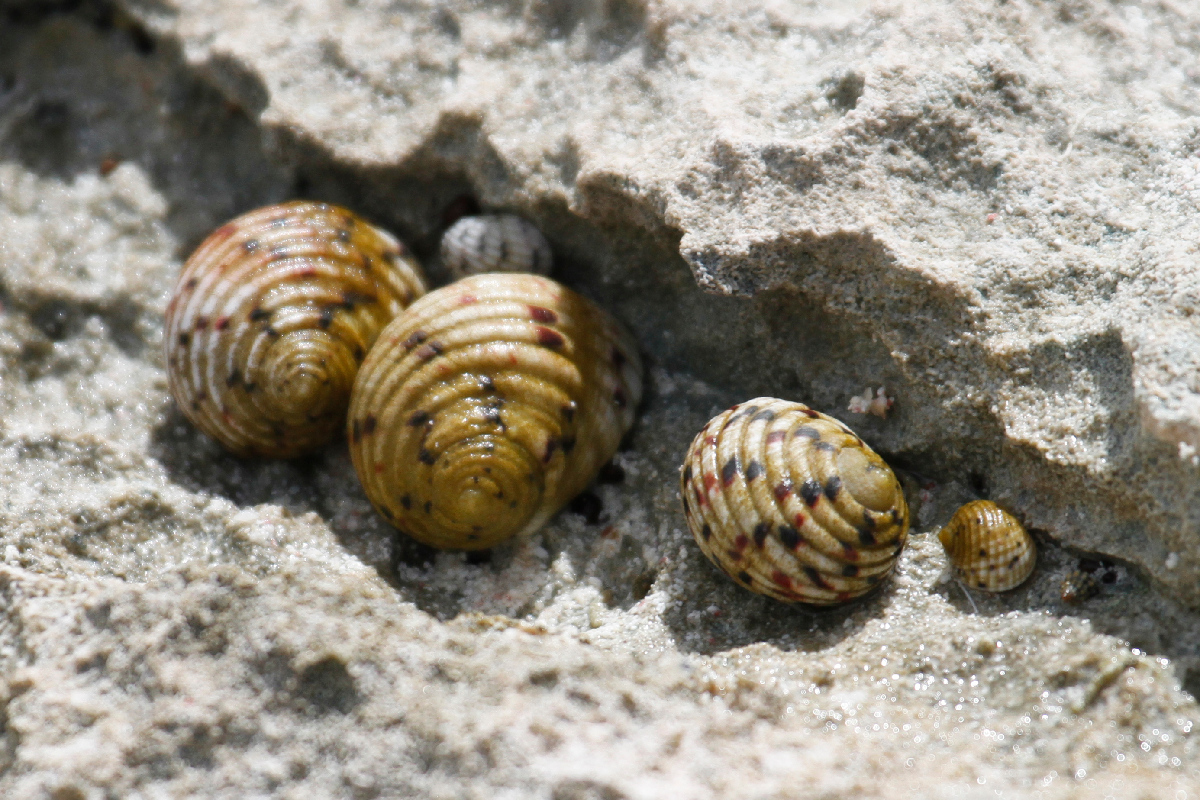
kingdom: Animalia
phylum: Mollusca
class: Gastropoda
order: Cycloneritida
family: Neritidae
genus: Nerita
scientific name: Nerita peloronta
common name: Bleeding tooth
